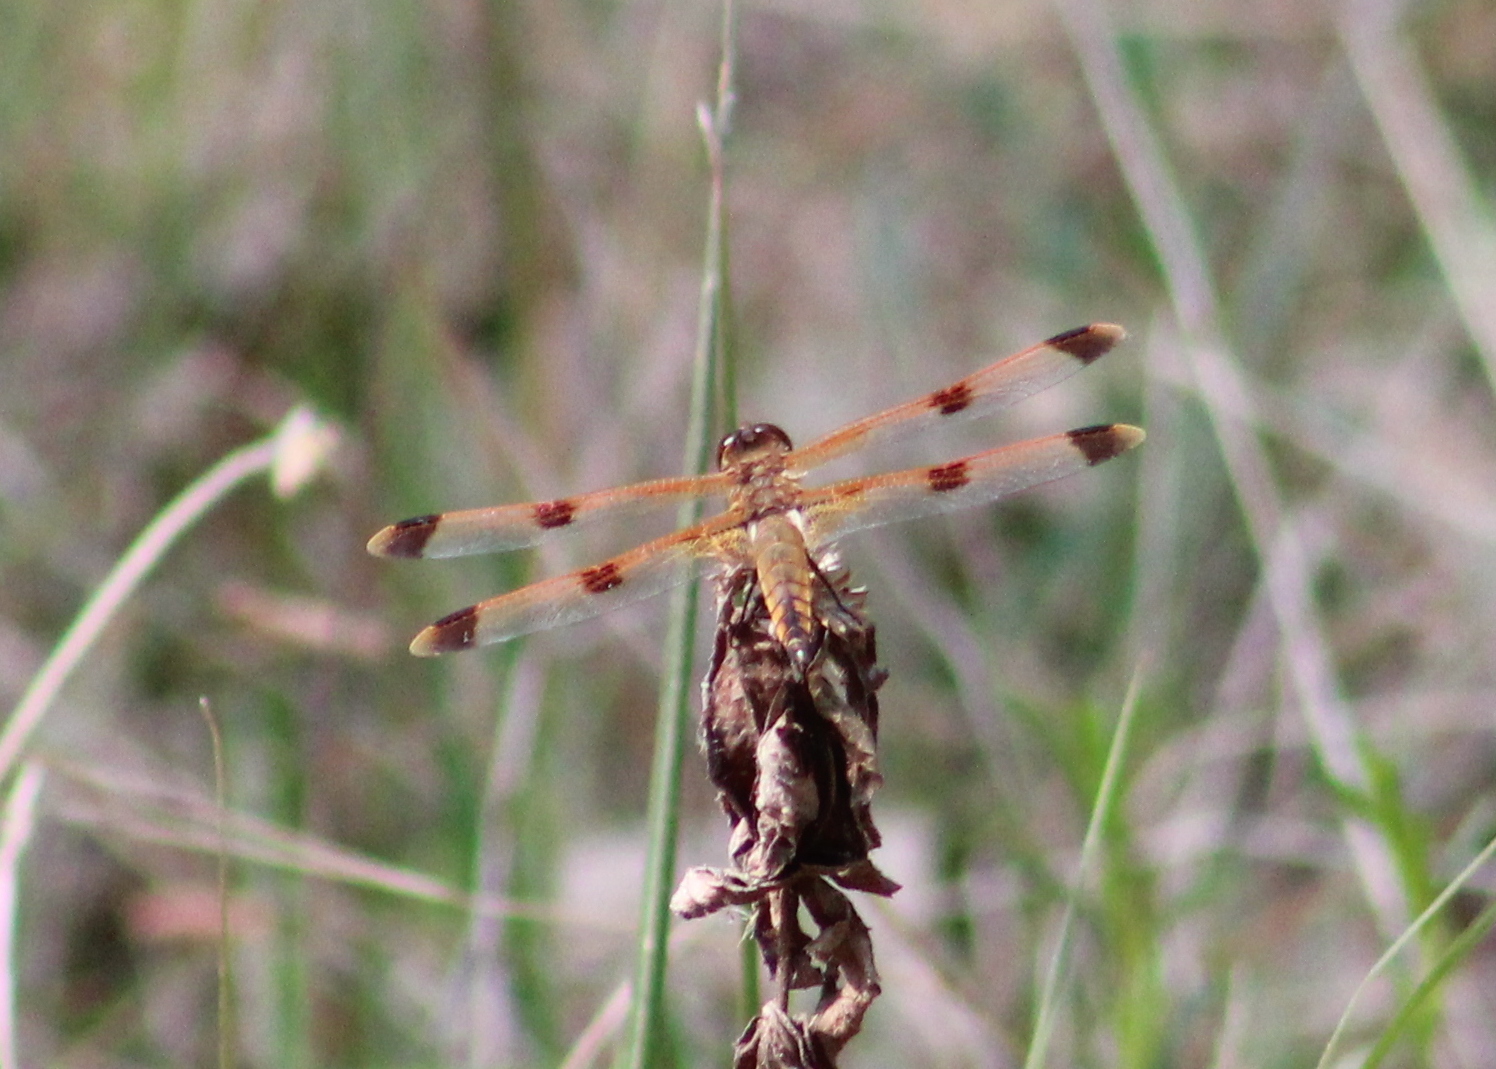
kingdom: Animalia
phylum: Arthropoda
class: Insecta
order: Odonata
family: Libellulidae
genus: Libellula
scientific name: Libellula semifasciata
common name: Painted skimmer
